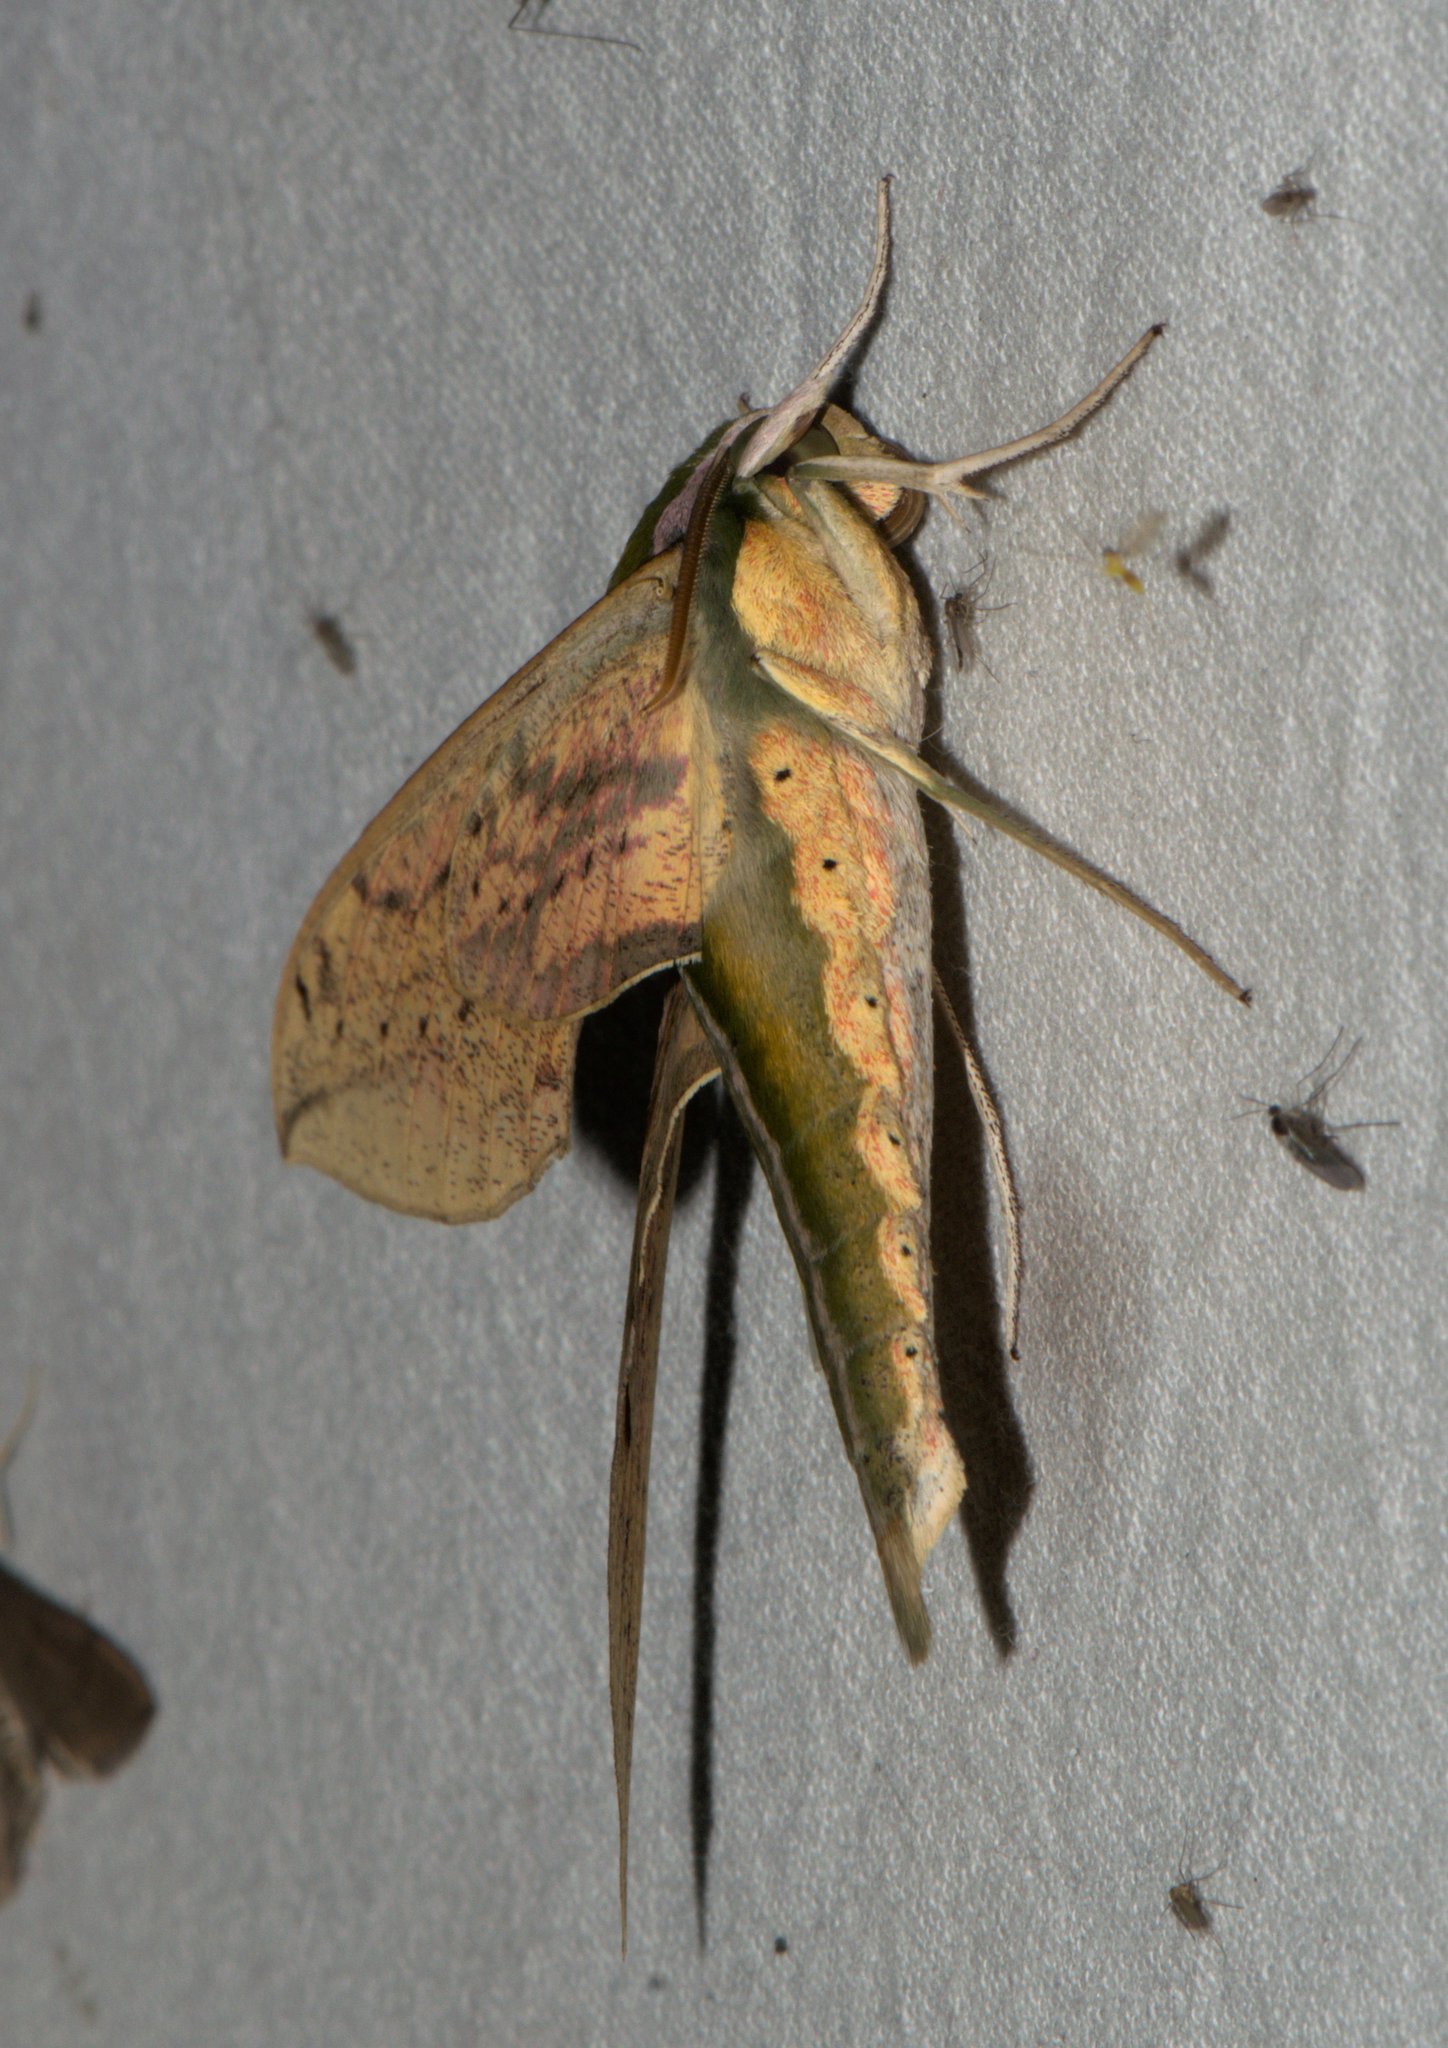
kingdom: Animalia
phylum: Arthropoda
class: Insecta
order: Lepidoptera
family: Sphingidae
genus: Cechetra
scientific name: Cechetra lineosa
